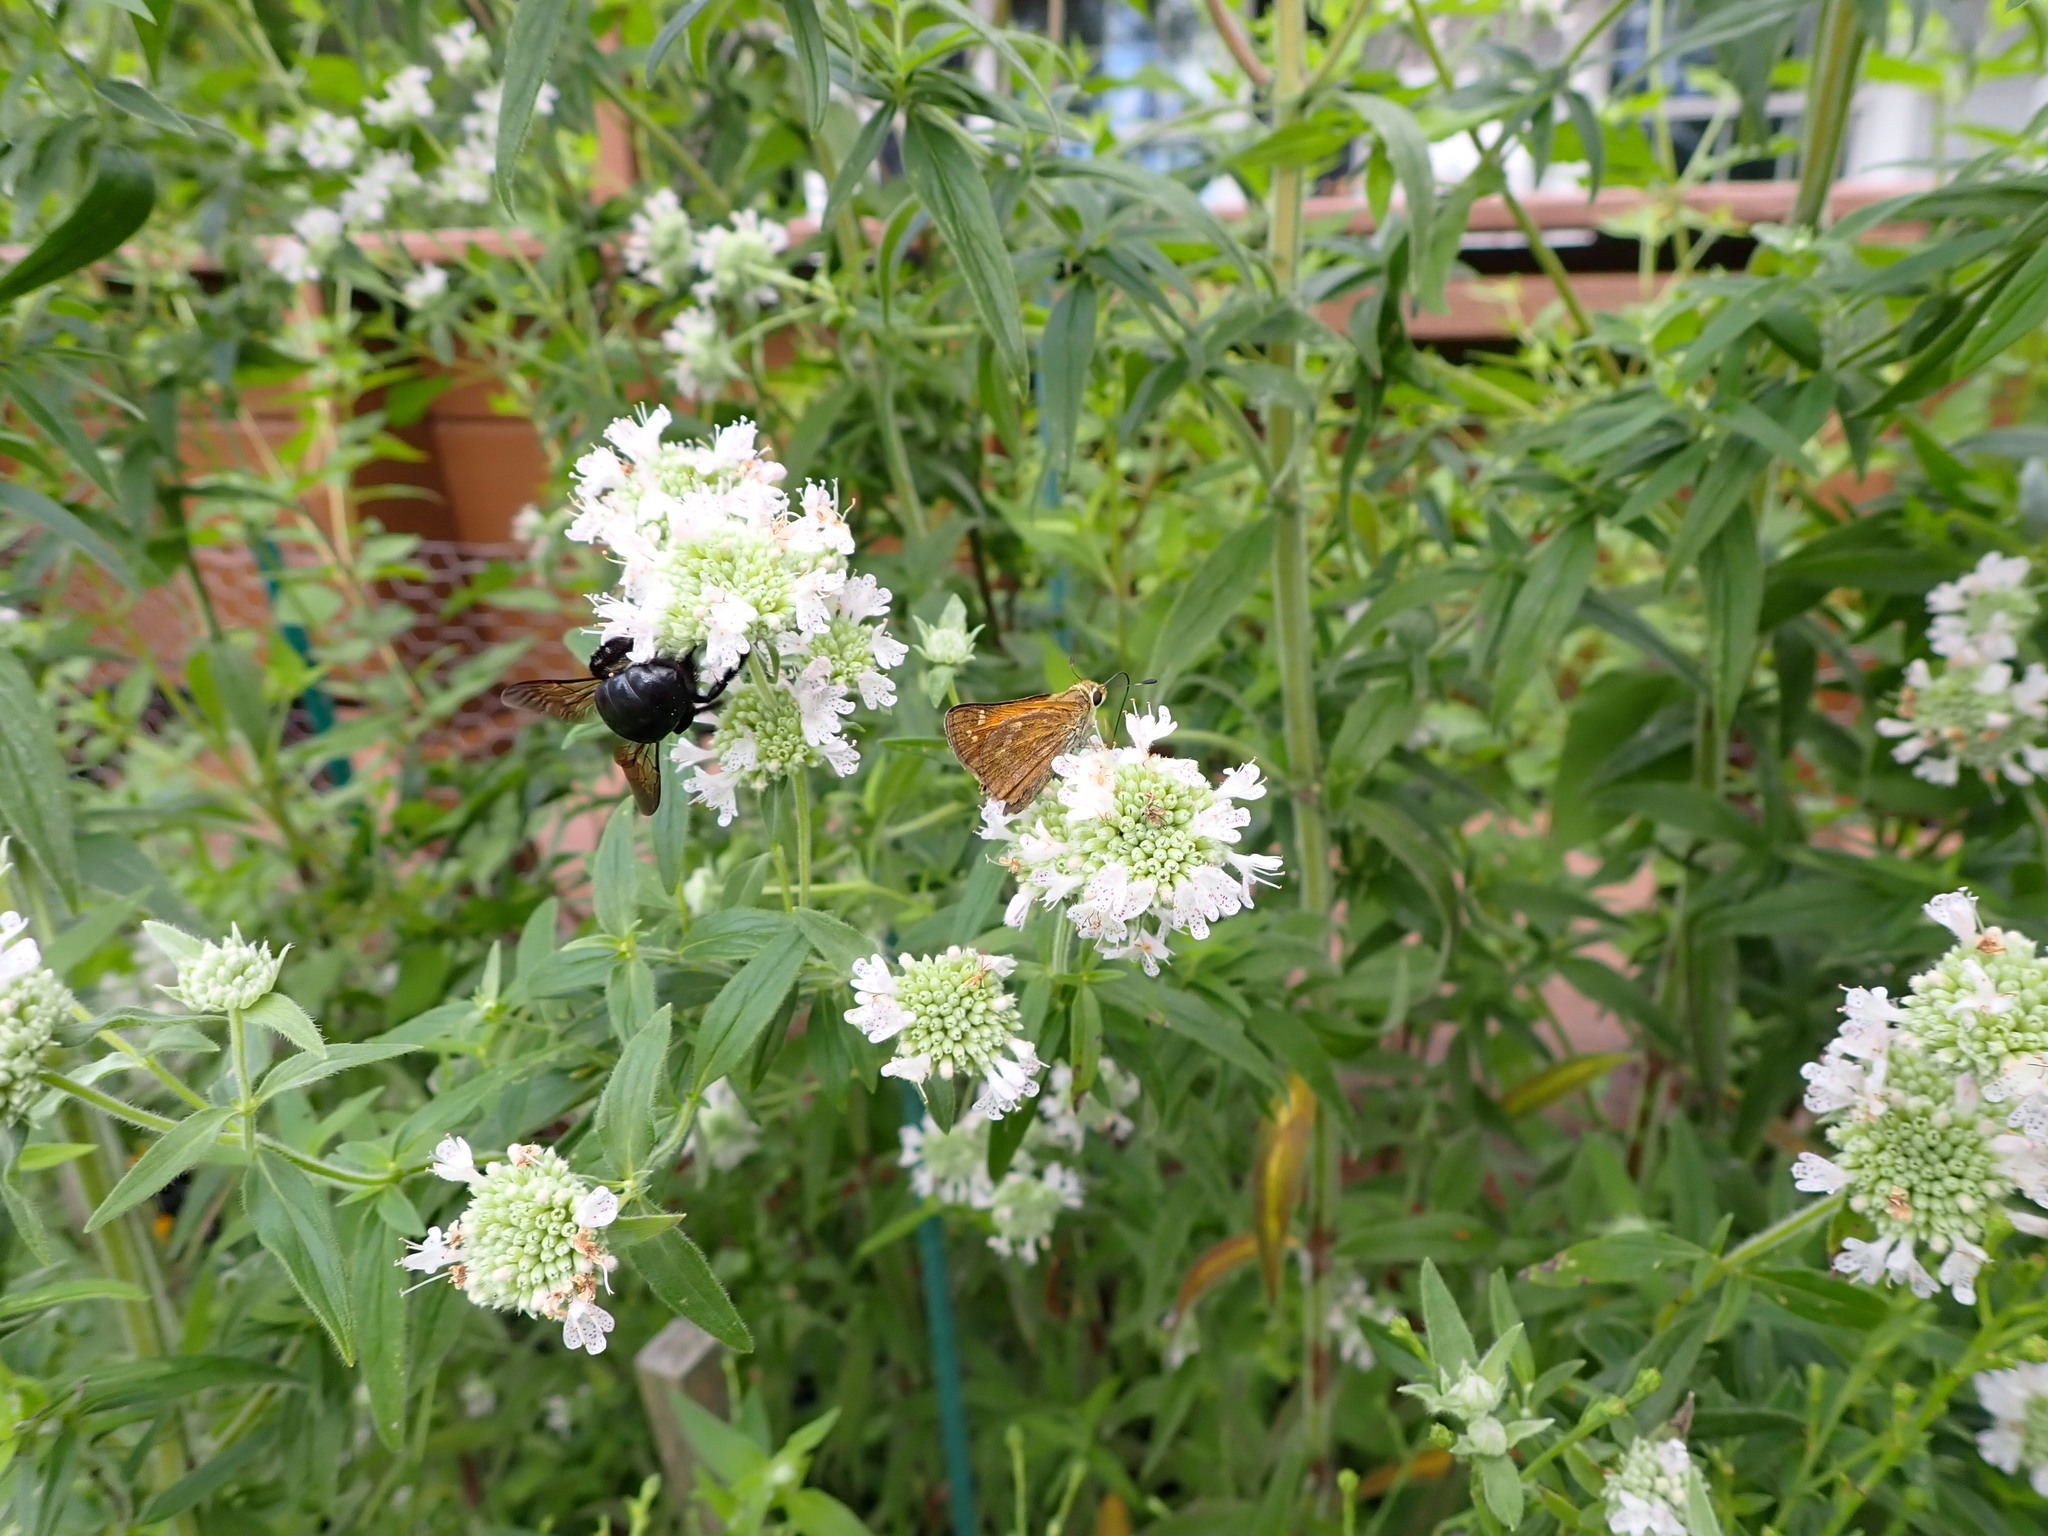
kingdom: Animalia
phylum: Arthropoda
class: Insecta
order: Lepidoptera
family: Hesperiidae
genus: Atalopedes
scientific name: Atalopedes
